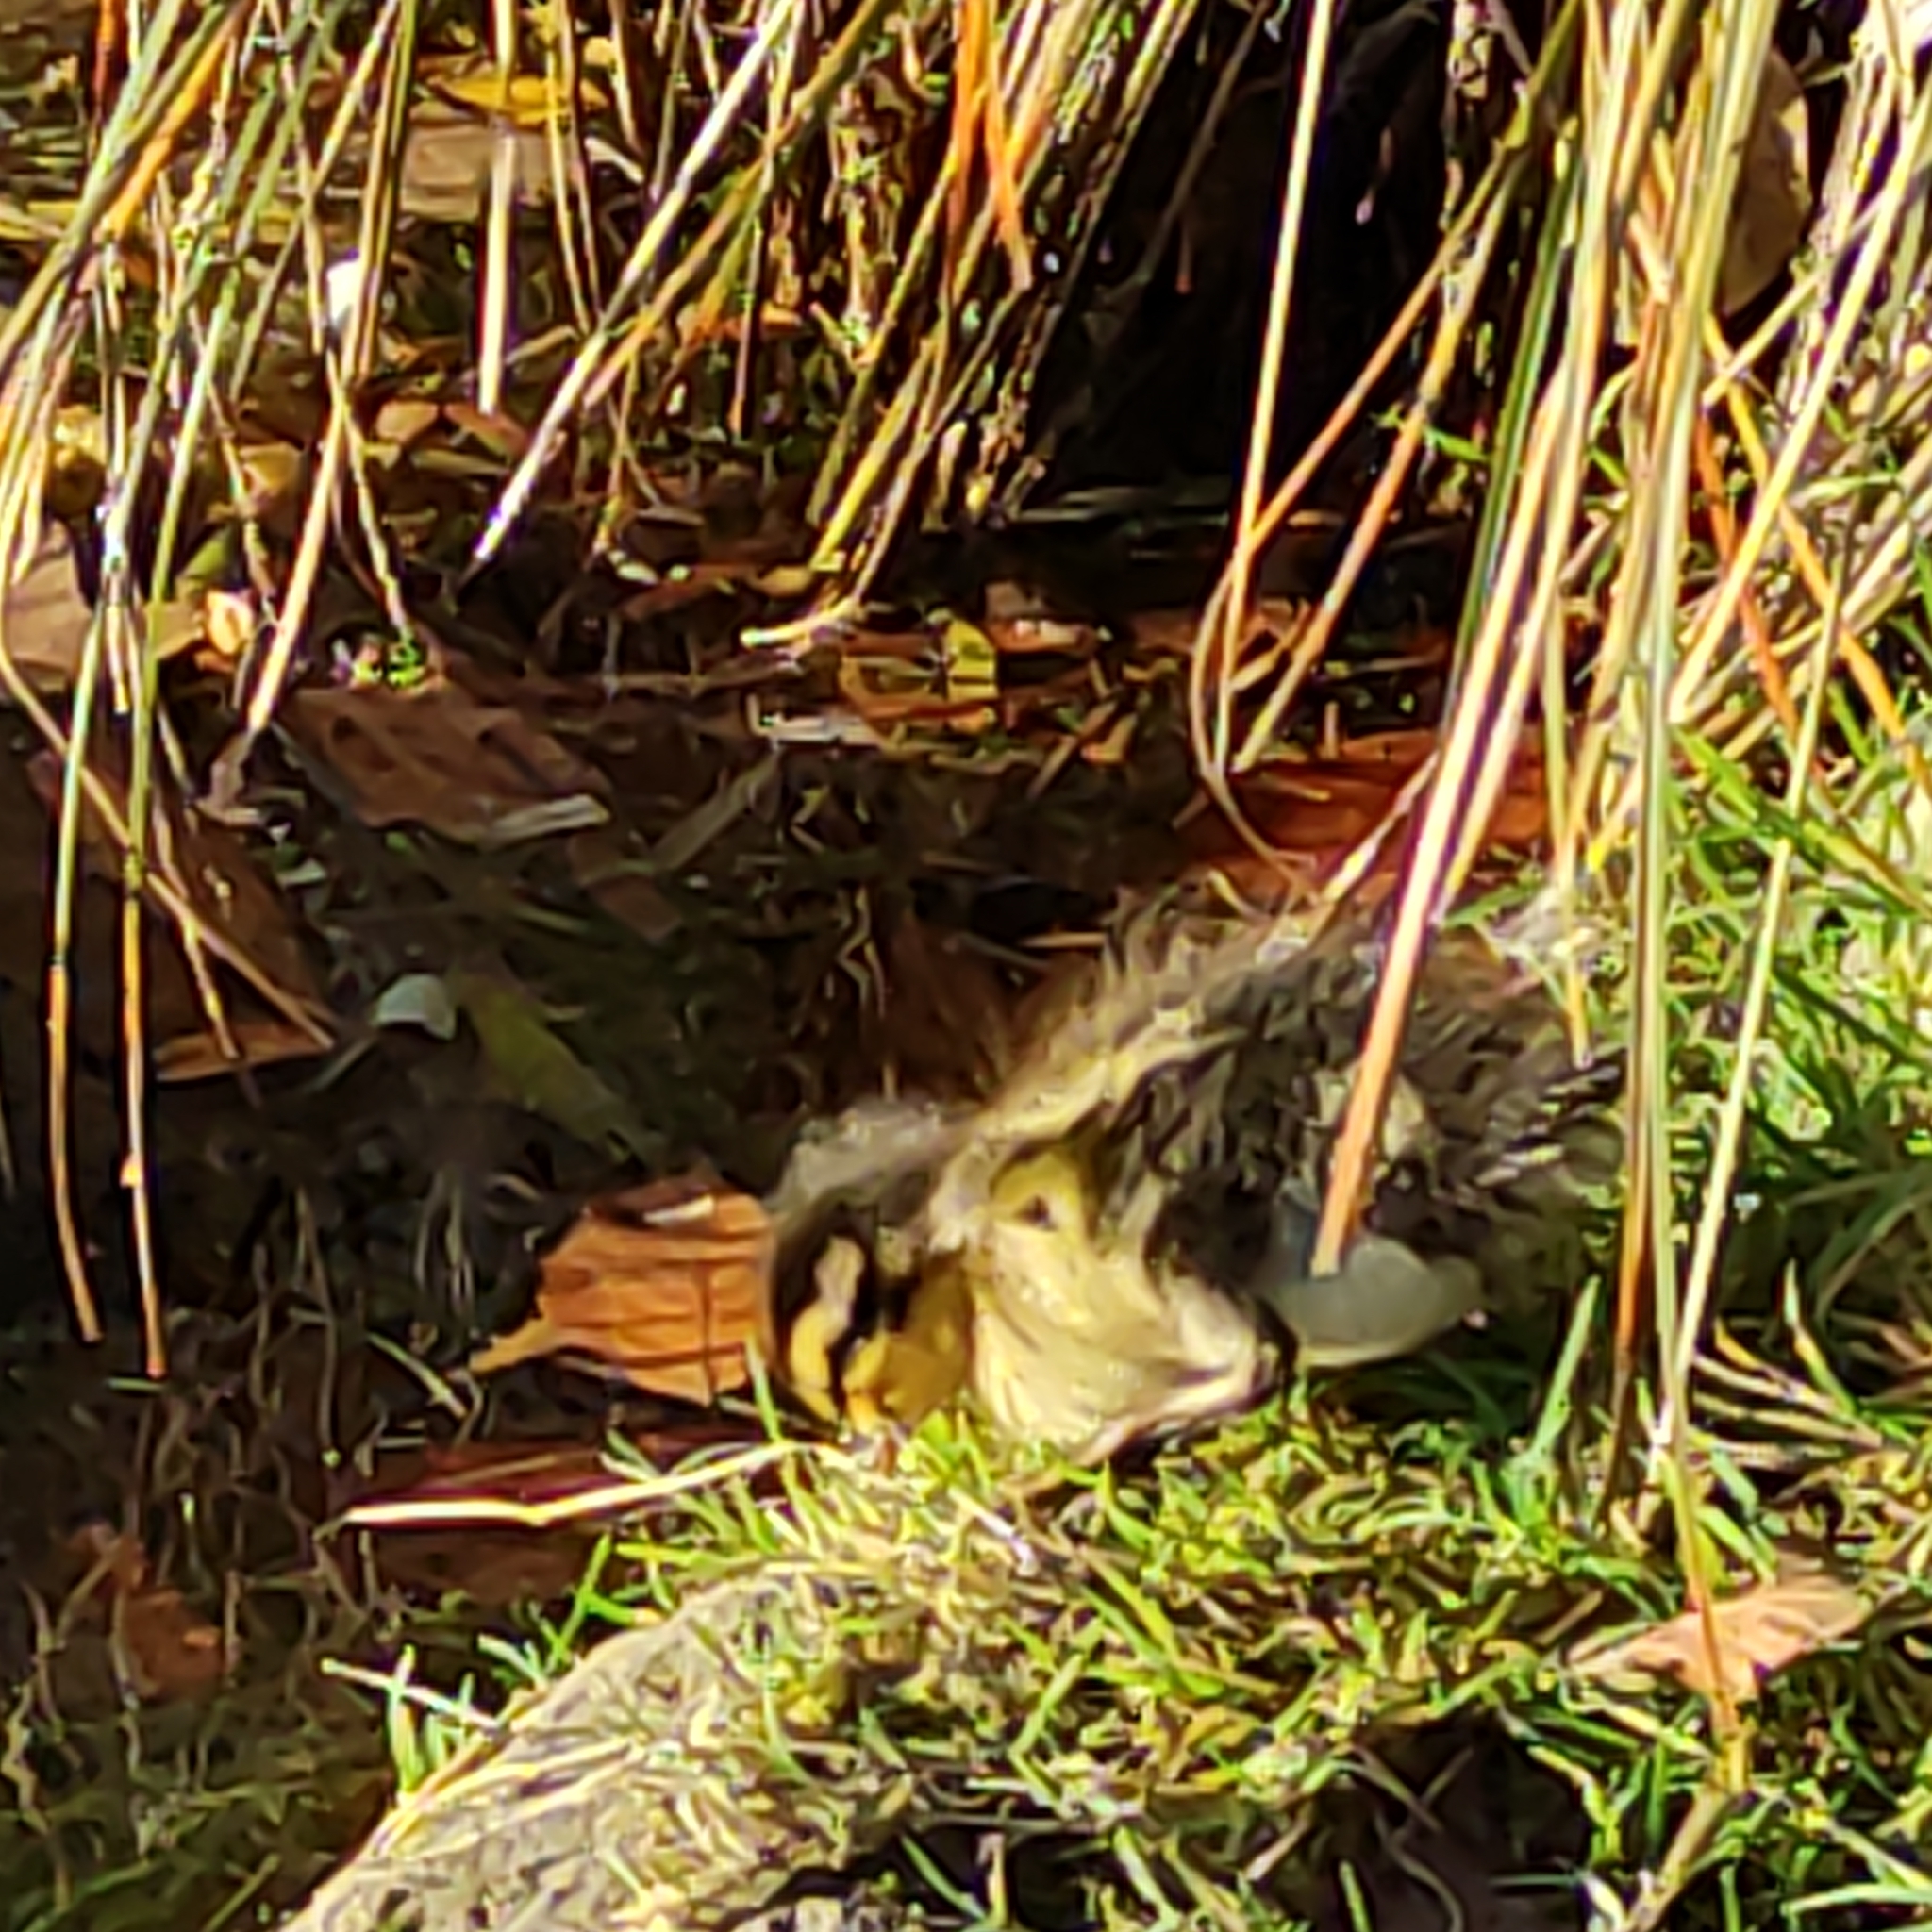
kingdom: Animalia
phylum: Chordata
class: Aves
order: Anseriformes
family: Anatidae
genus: Anas
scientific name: Anas
